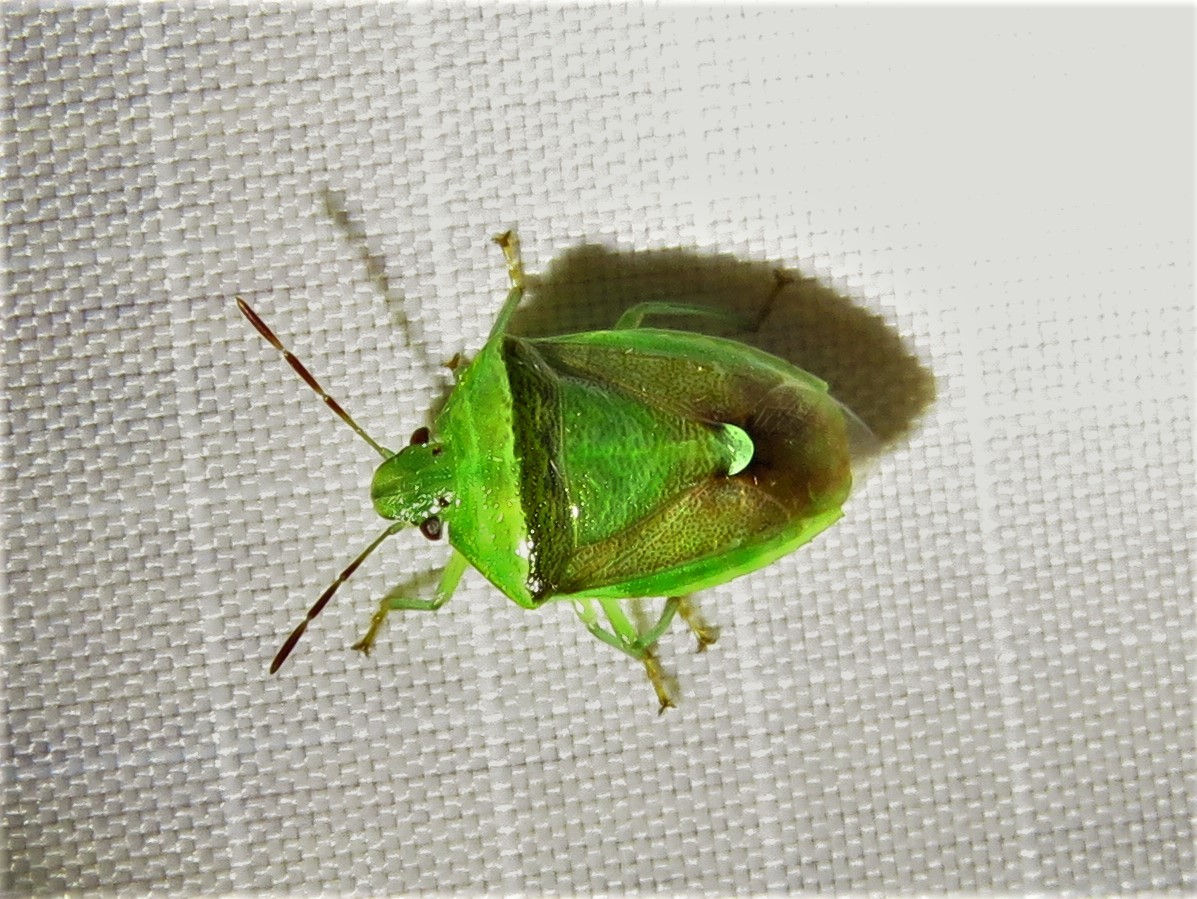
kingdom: Animalia
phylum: Arthropoda
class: Insecta
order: Hemiptera
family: Pentatomidae
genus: Banasa
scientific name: Banasa dimidiata
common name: Green burgundy stink bug
